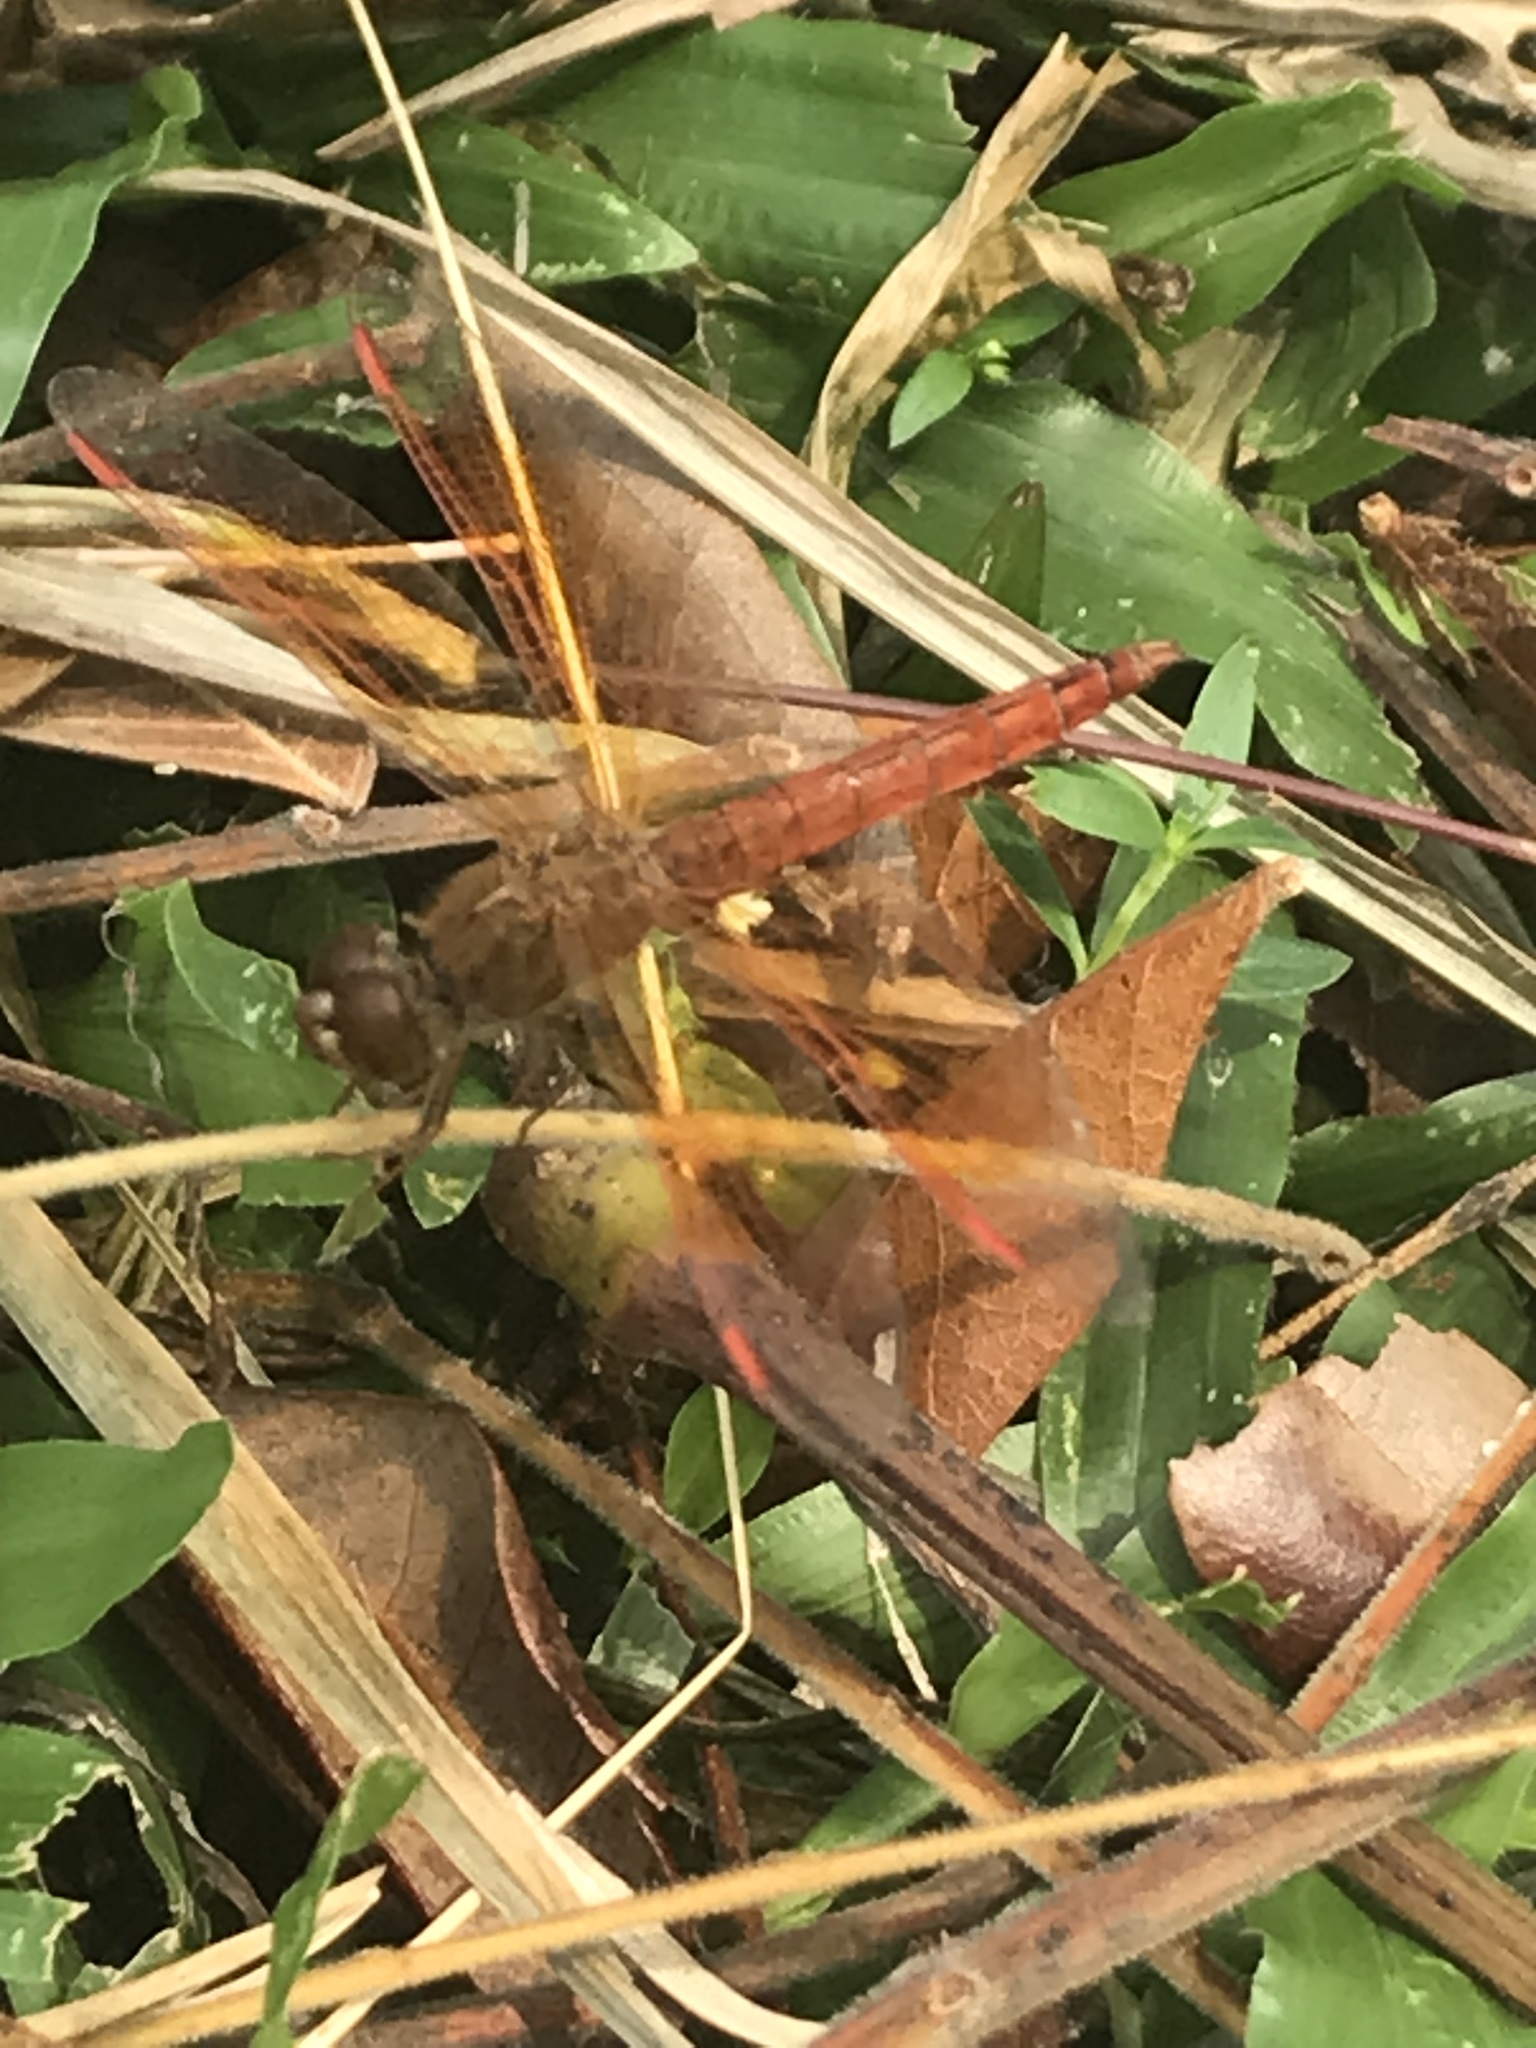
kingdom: Animalia
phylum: Arthropoda
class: Insecta
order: Odonata
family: Libellulidae
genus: Brachythemis
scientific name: Brachythemis contaminata
